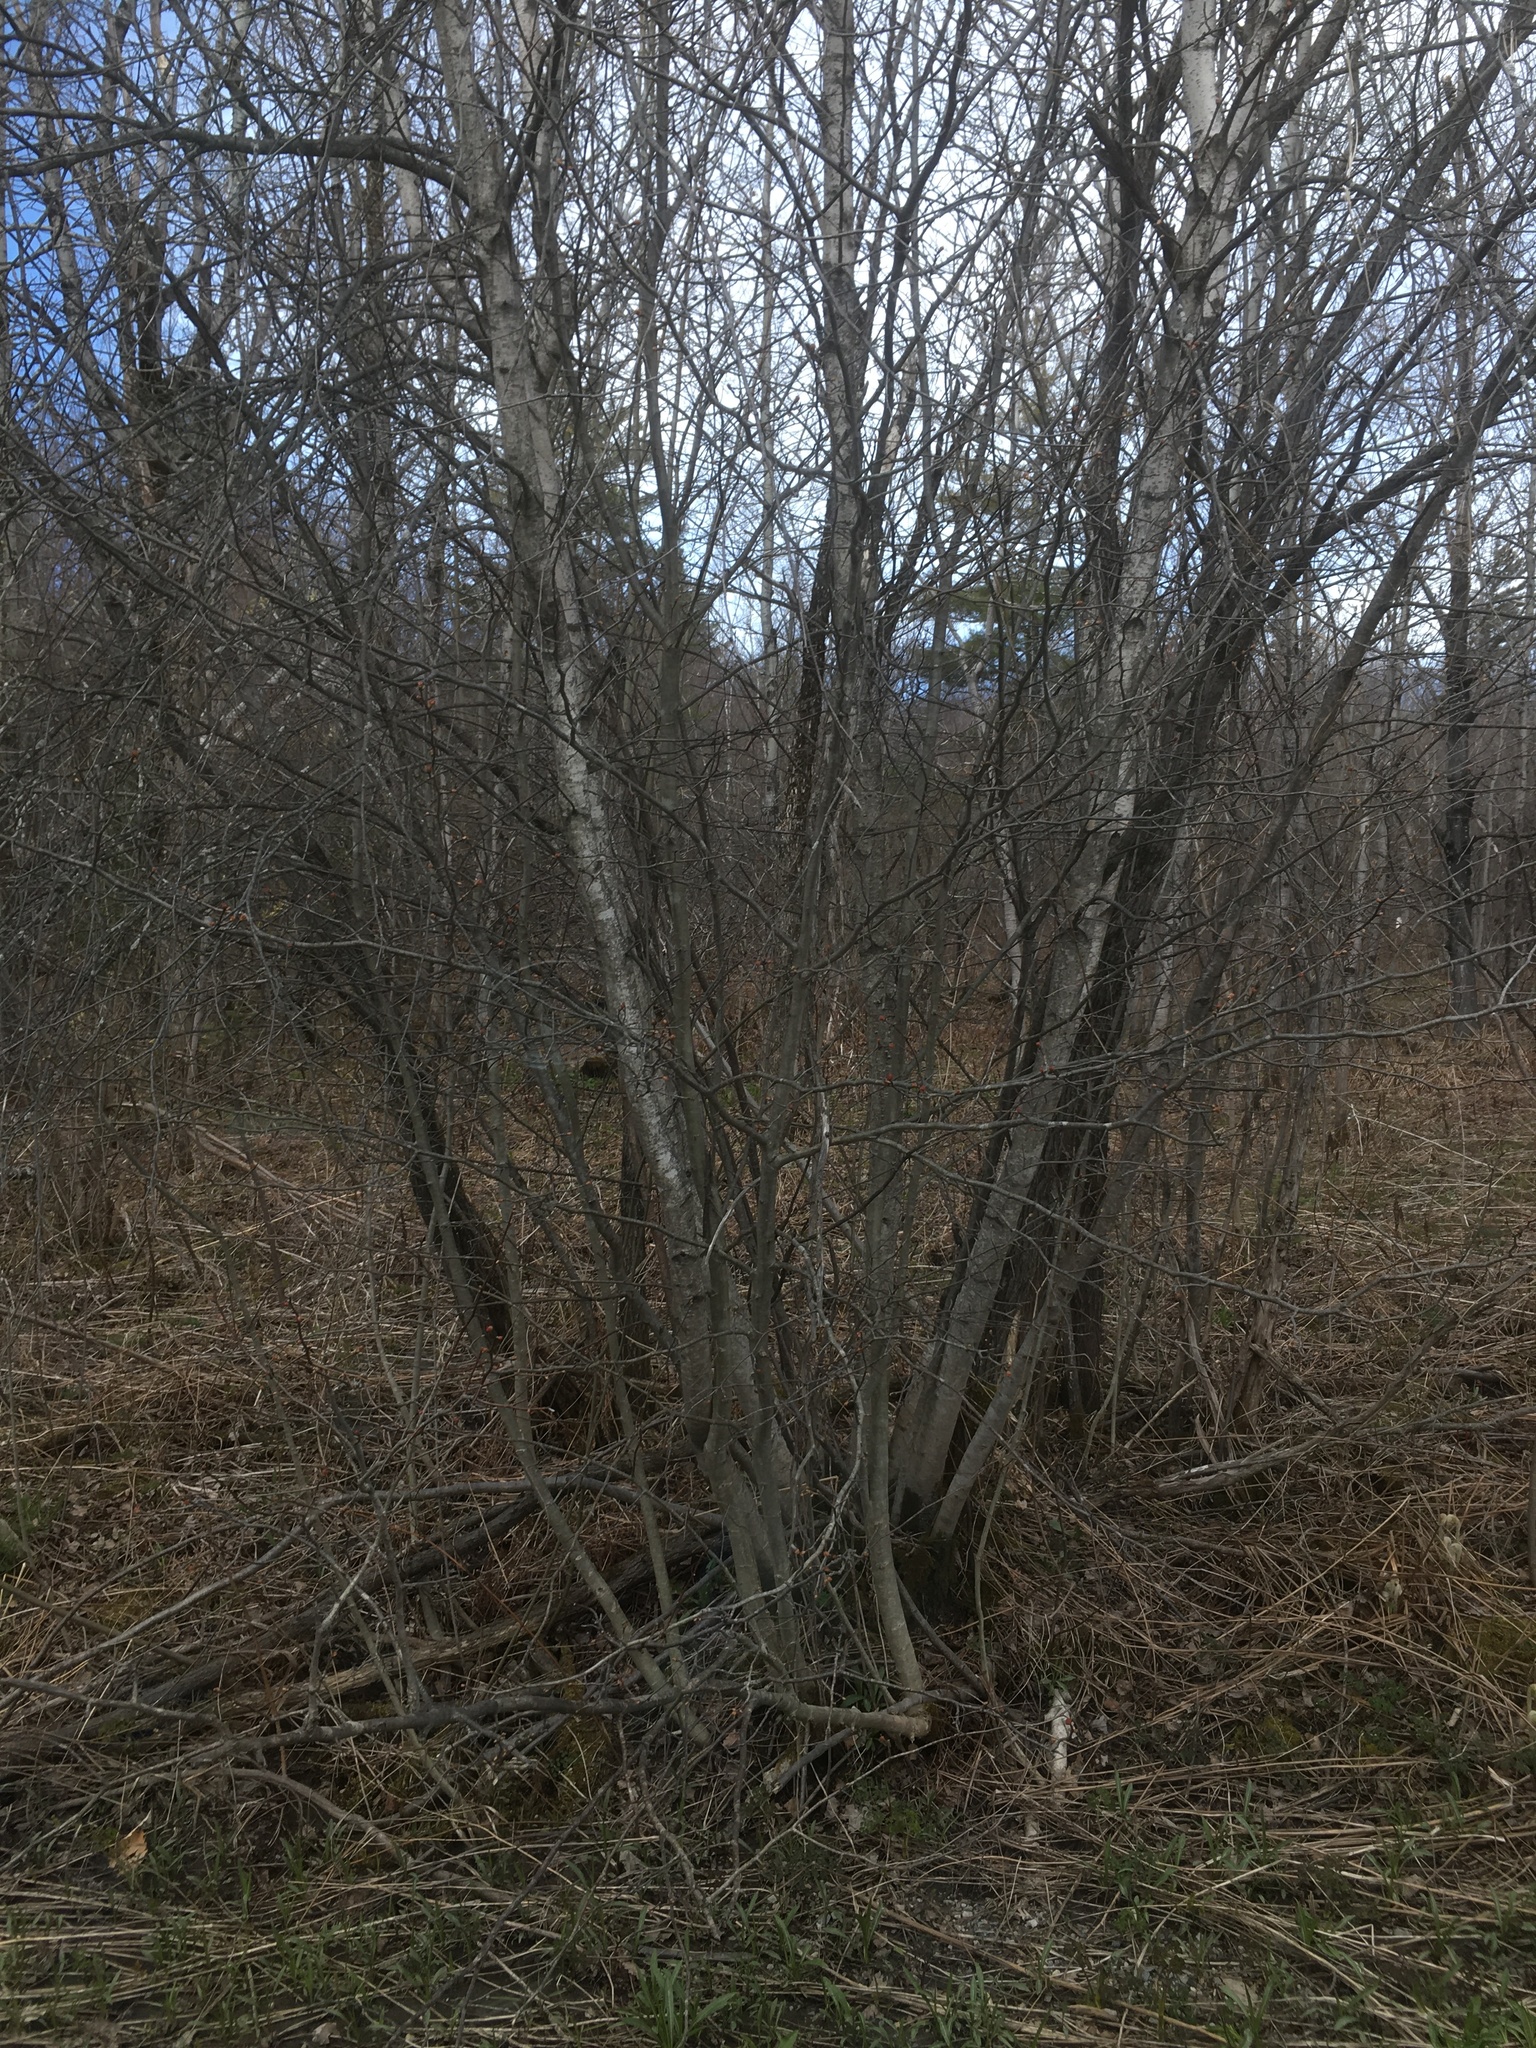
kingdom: Plantae
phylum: Tracheophyta
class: Magnoliopsida
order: Fagales
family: Betulaceae
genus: Betula
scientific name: Betula populifolia
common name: Fire birch
